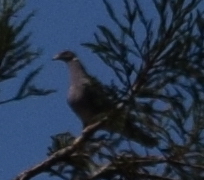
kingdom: Animalia
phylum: Chordata
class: Aves
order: Columbiformes
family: Columbidae
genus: Patagioenas
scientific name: Patagioenas fasciata
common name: Band-tailed pigeon
